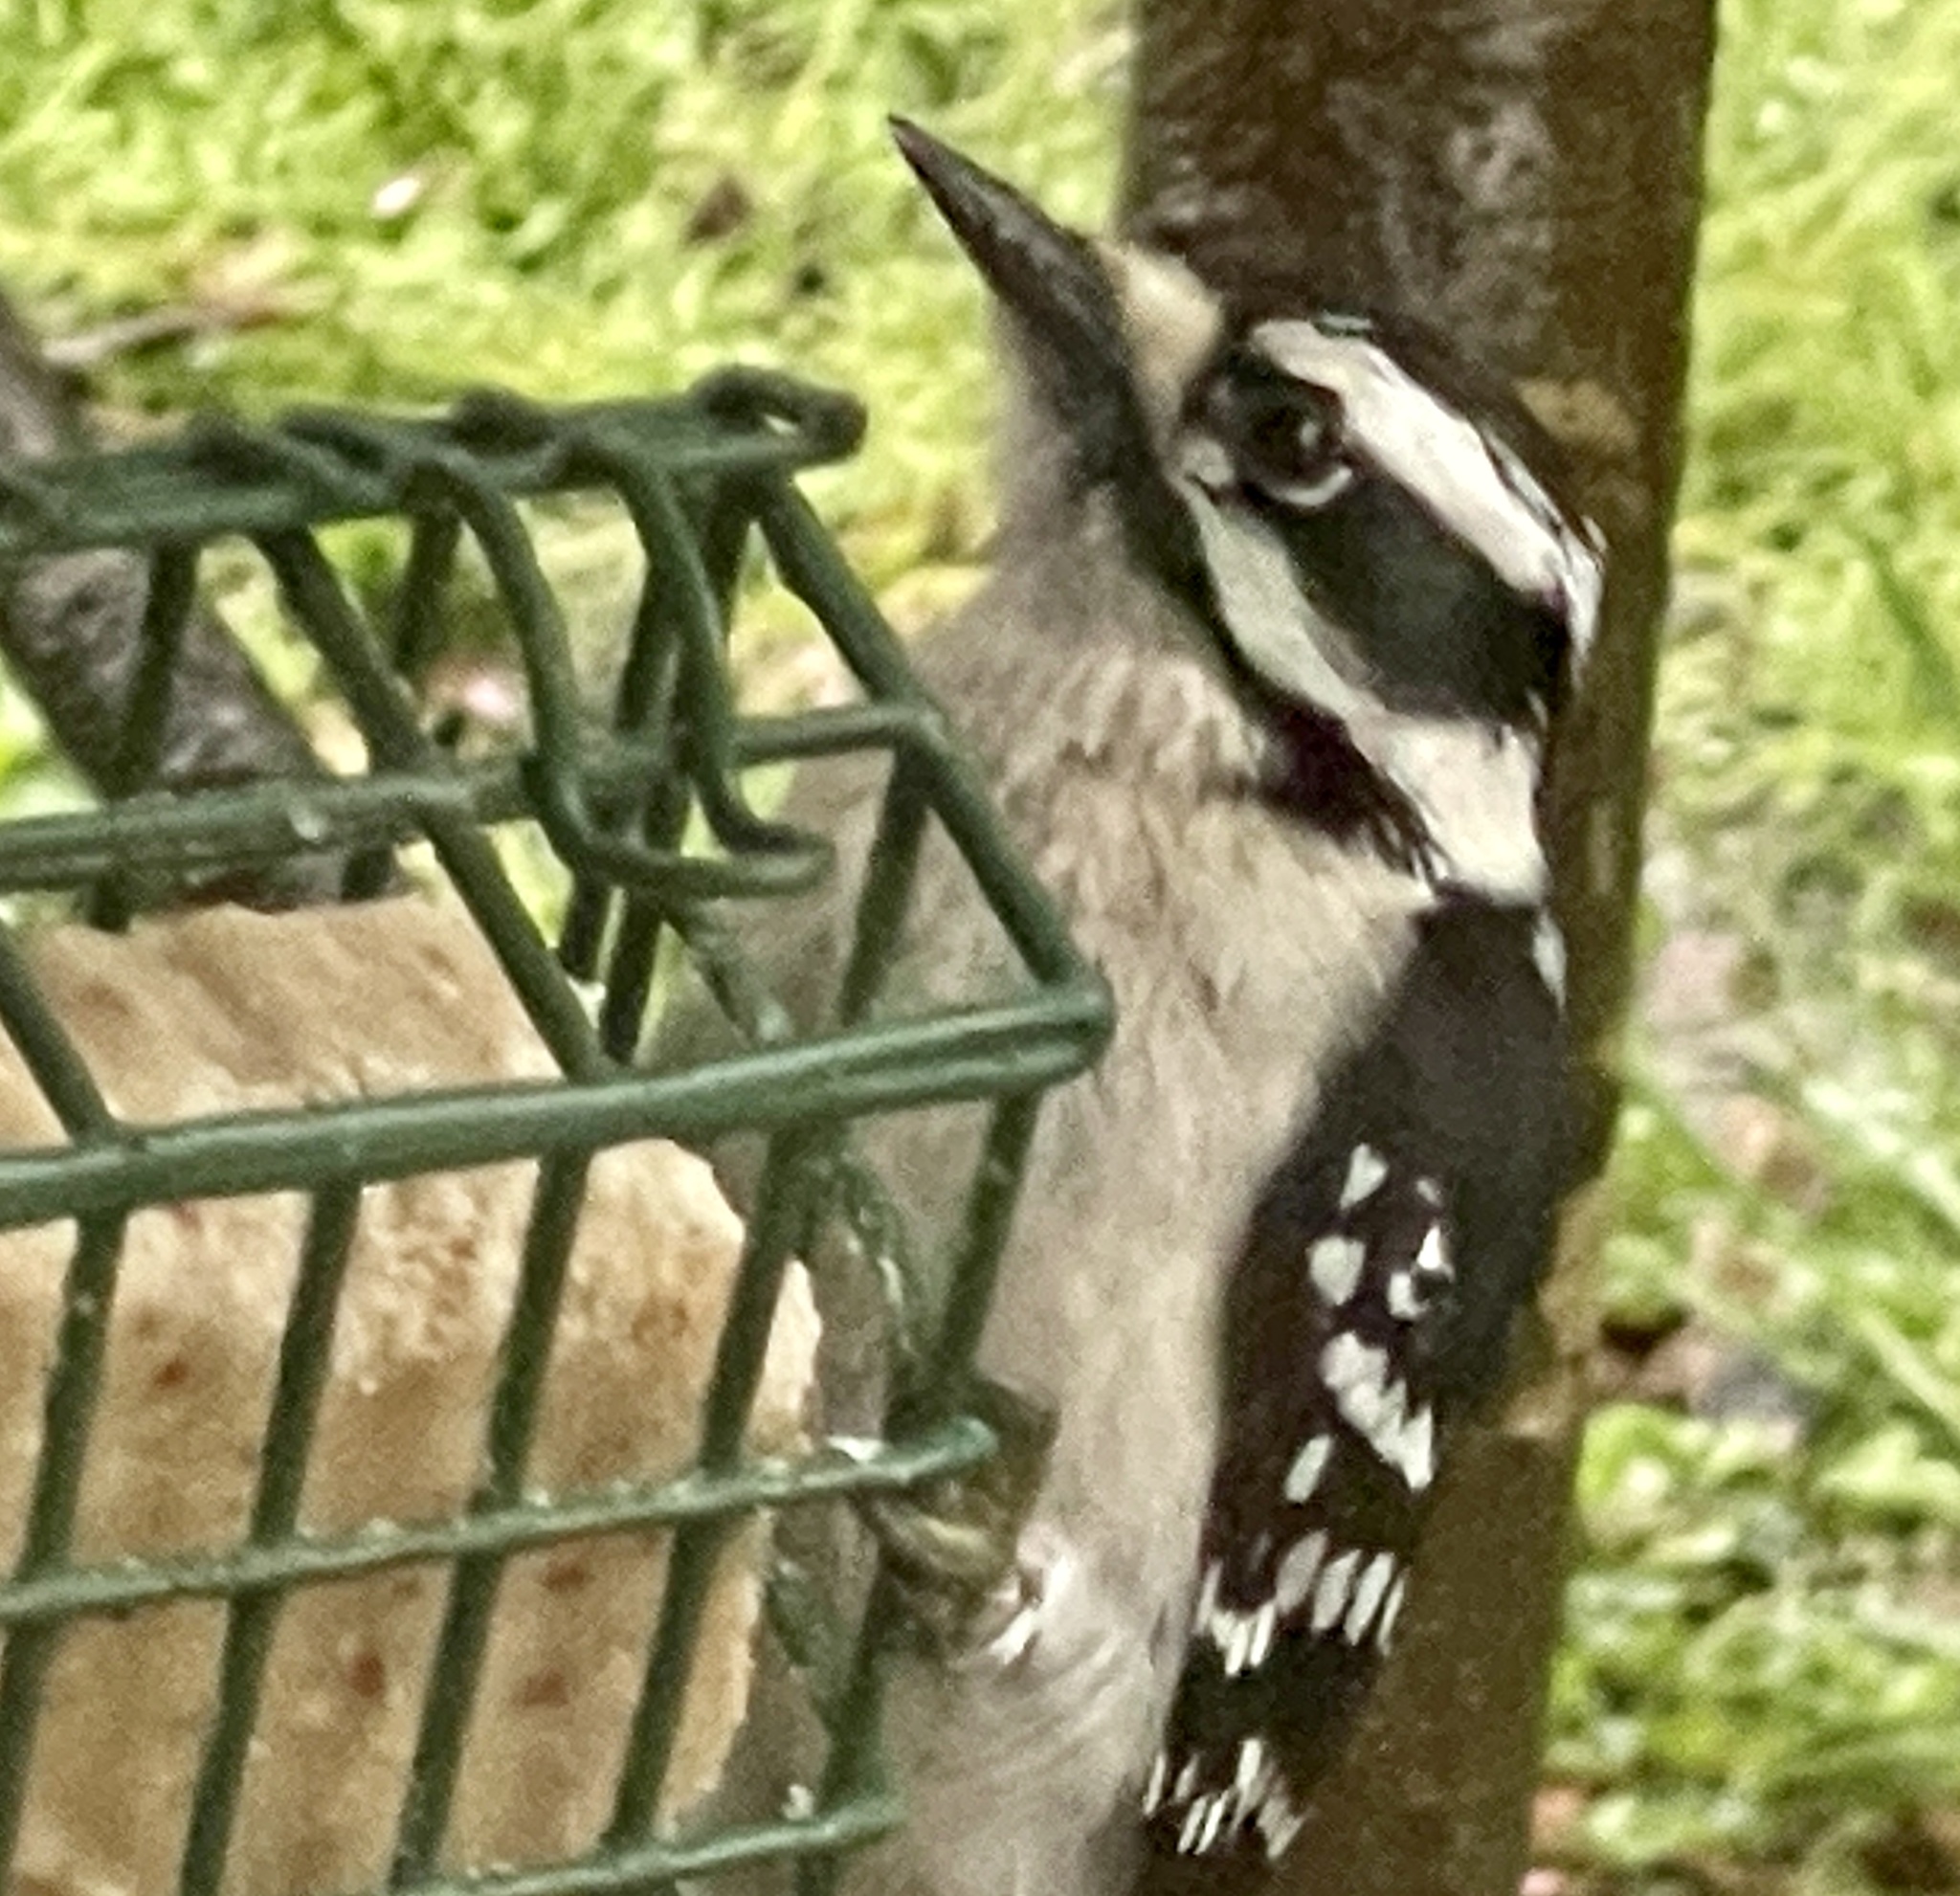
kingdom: Animalia
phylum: Chordata
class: Aves
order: Piciformes
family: Picidae
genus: Dryobates
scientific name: Dryobates pubescens
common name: Downy woodpecker
